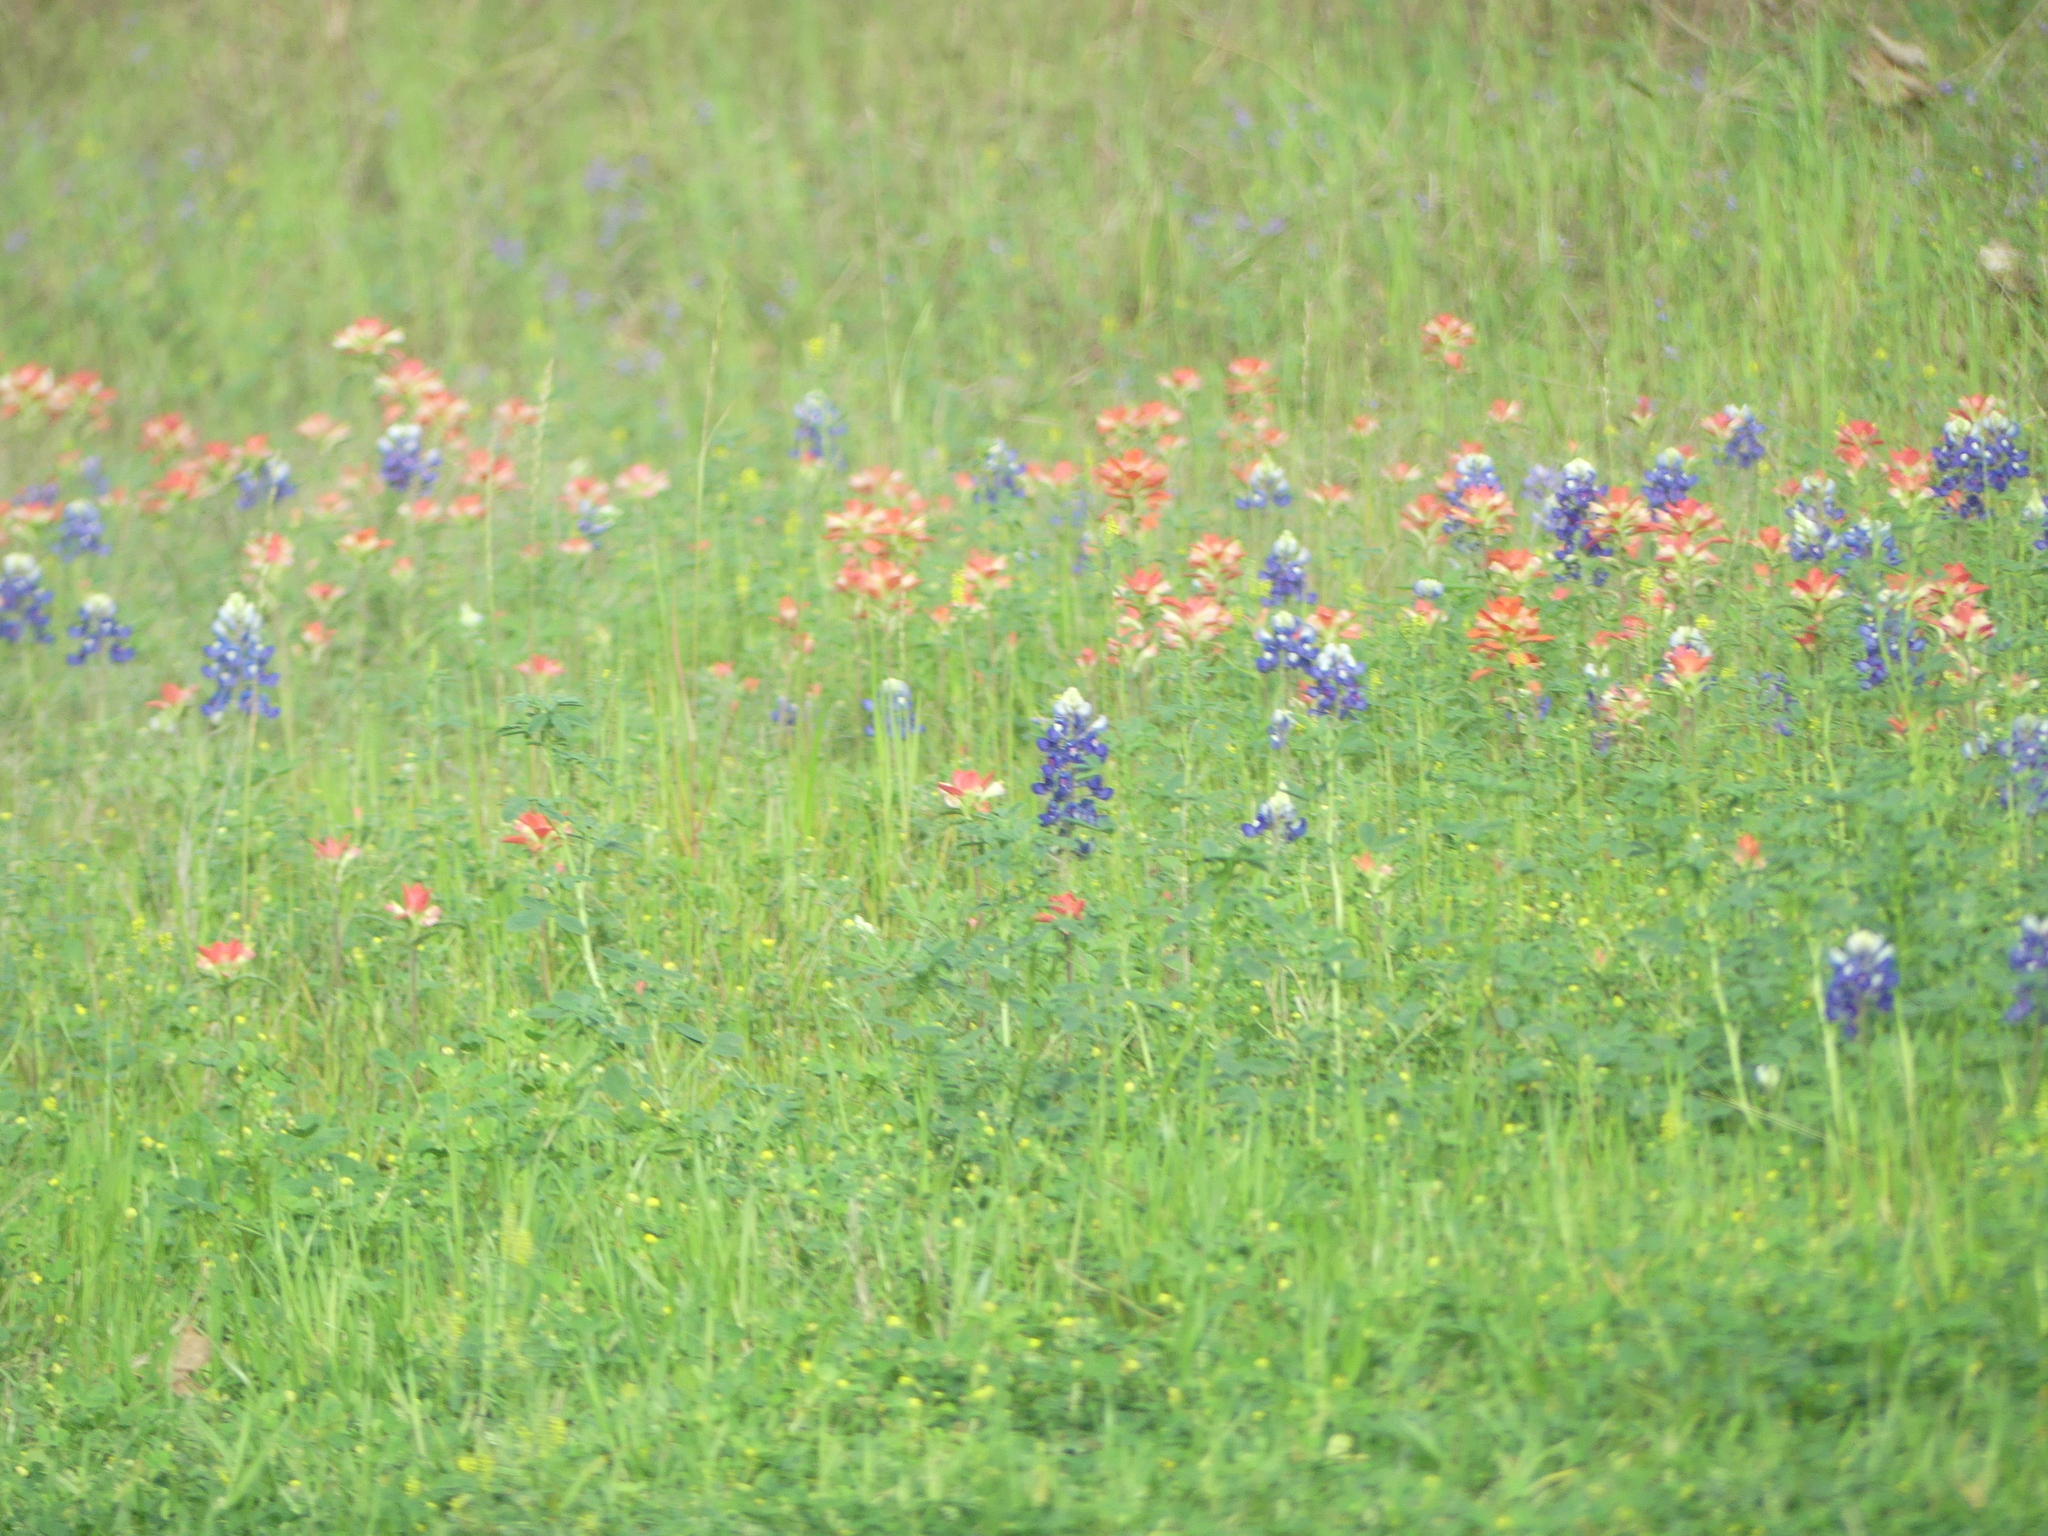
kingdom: Plantae
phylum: Tracheophyta
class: Magnoliopsida
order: Fabales
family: Fabaceae
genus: Lupinus
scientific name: Lupinus texensis
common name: Texas bluebonnet
